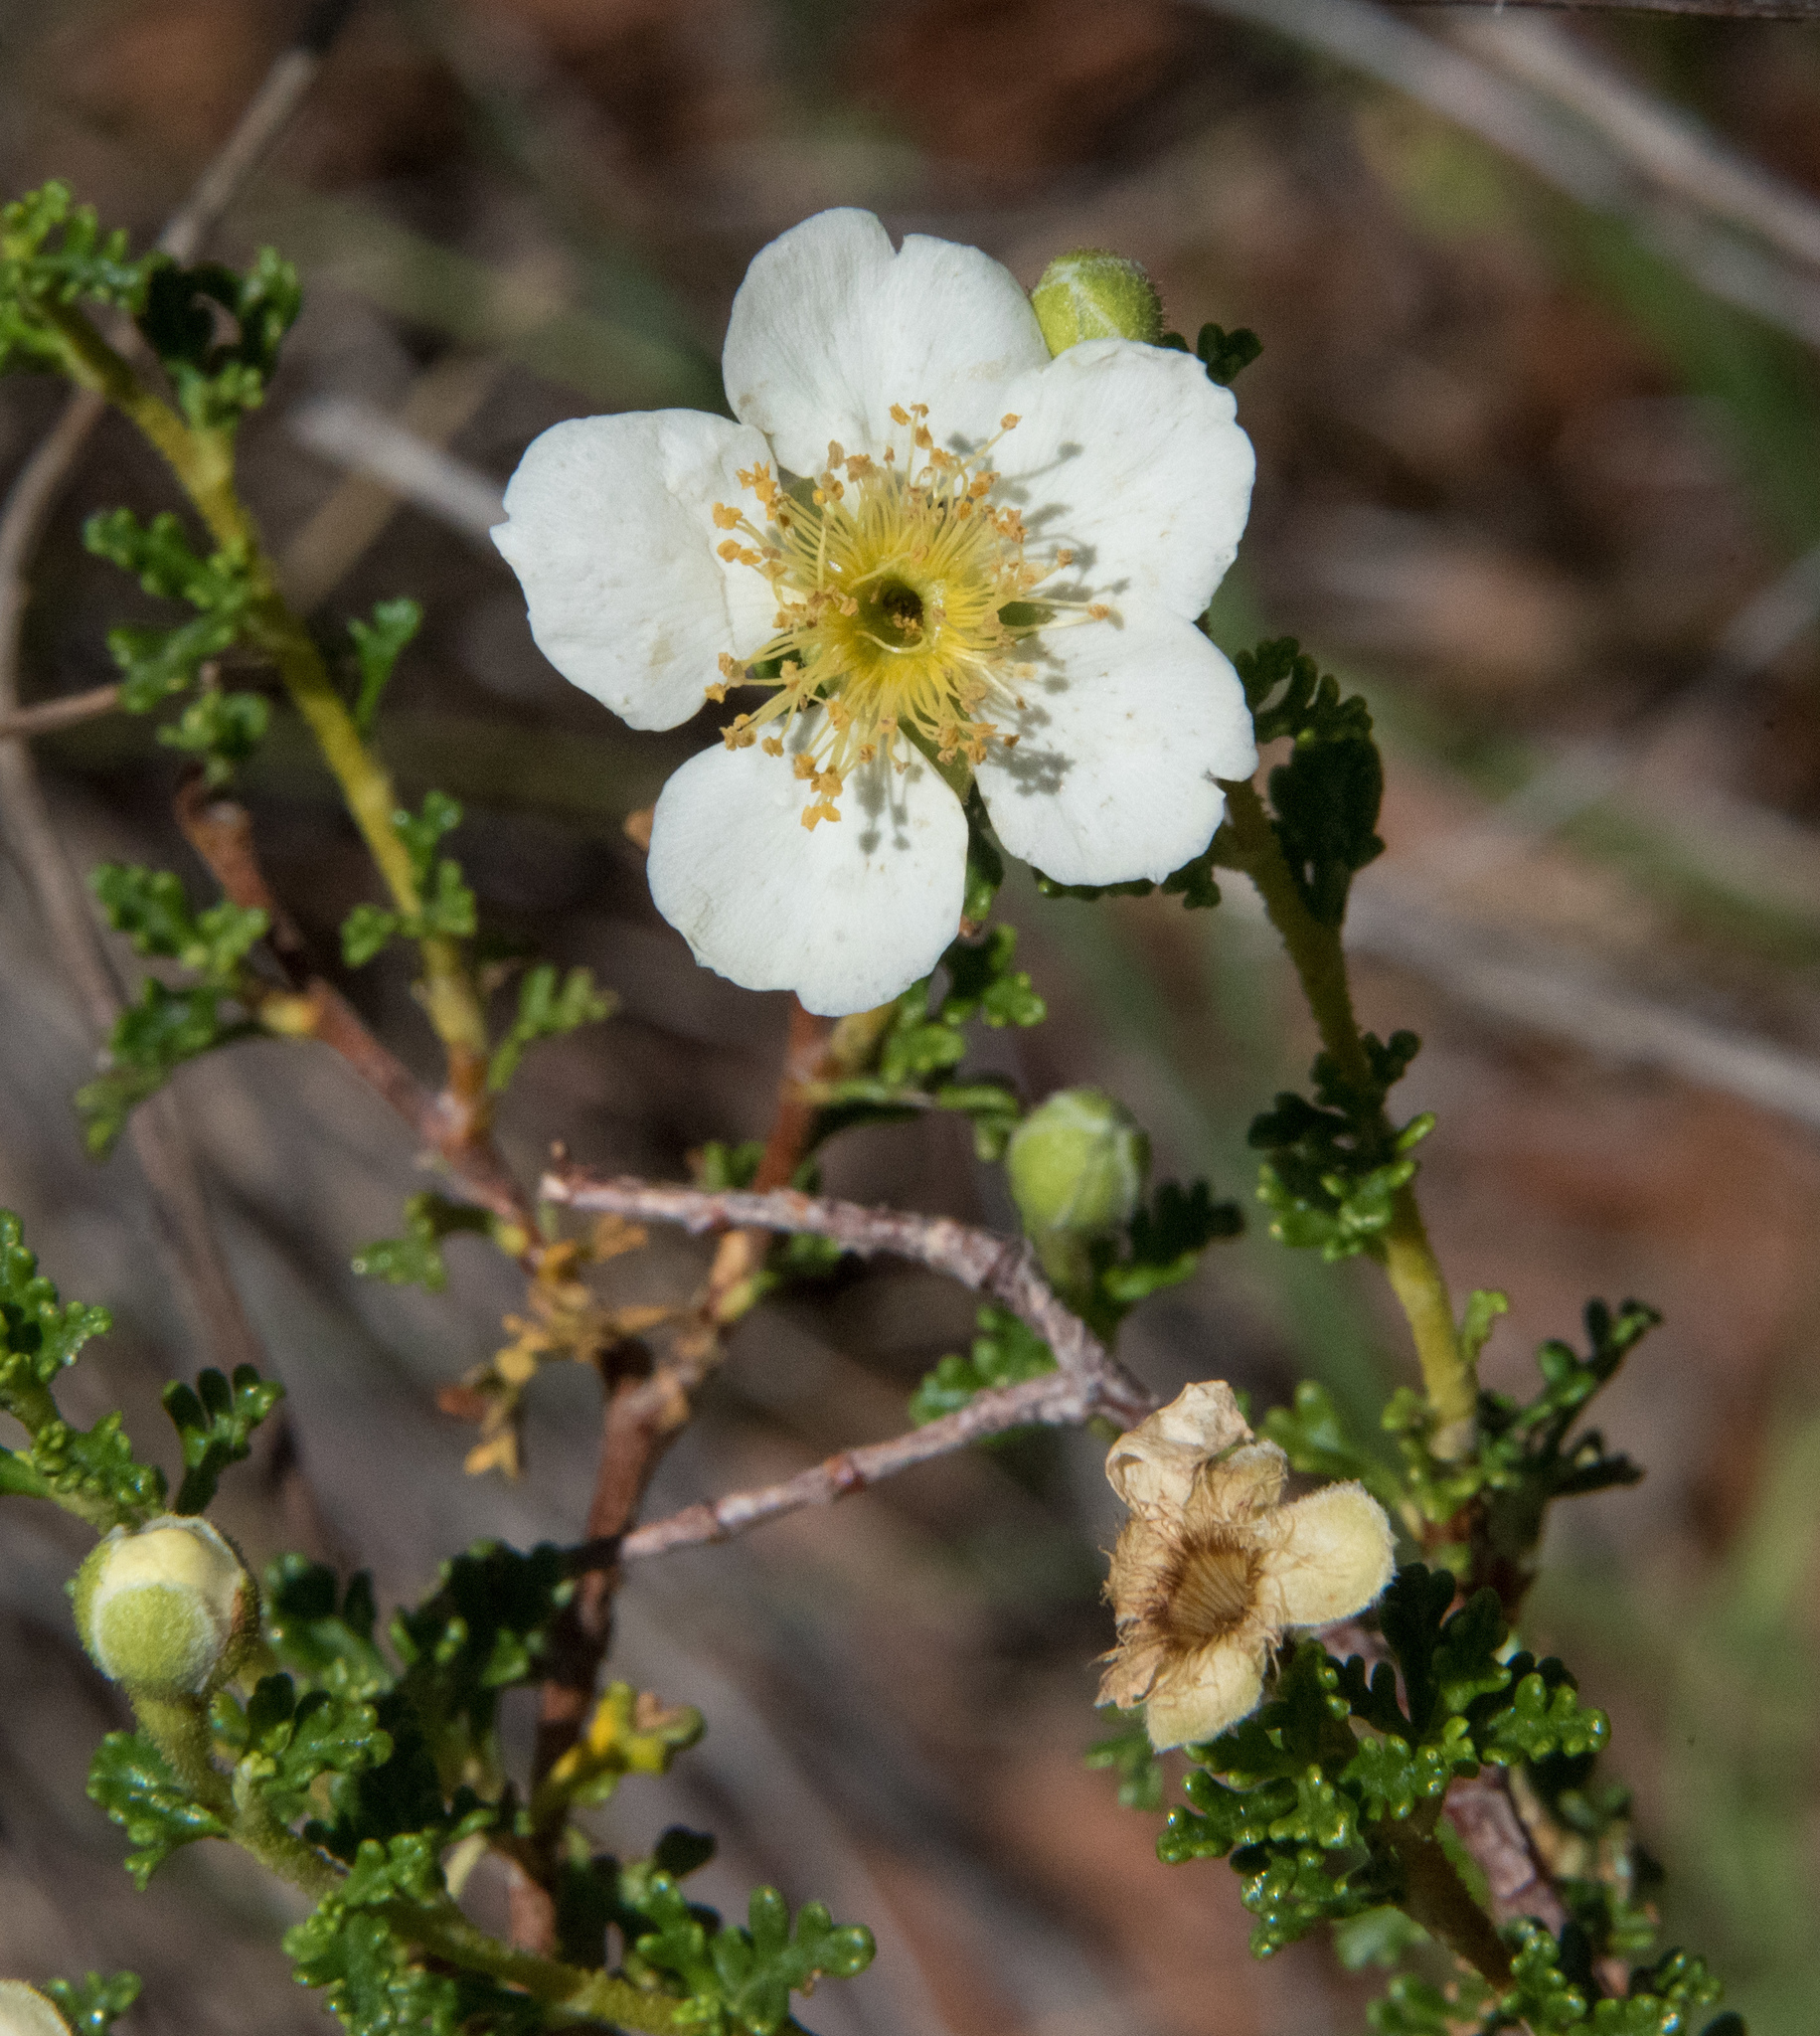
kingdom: Plantae
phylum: Tracheophyta
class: Magnoliopsida
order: Rosales
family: Rosaceae
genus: Purshia
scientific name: Purshia stansburiana
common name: Stansbury's cliffrose
